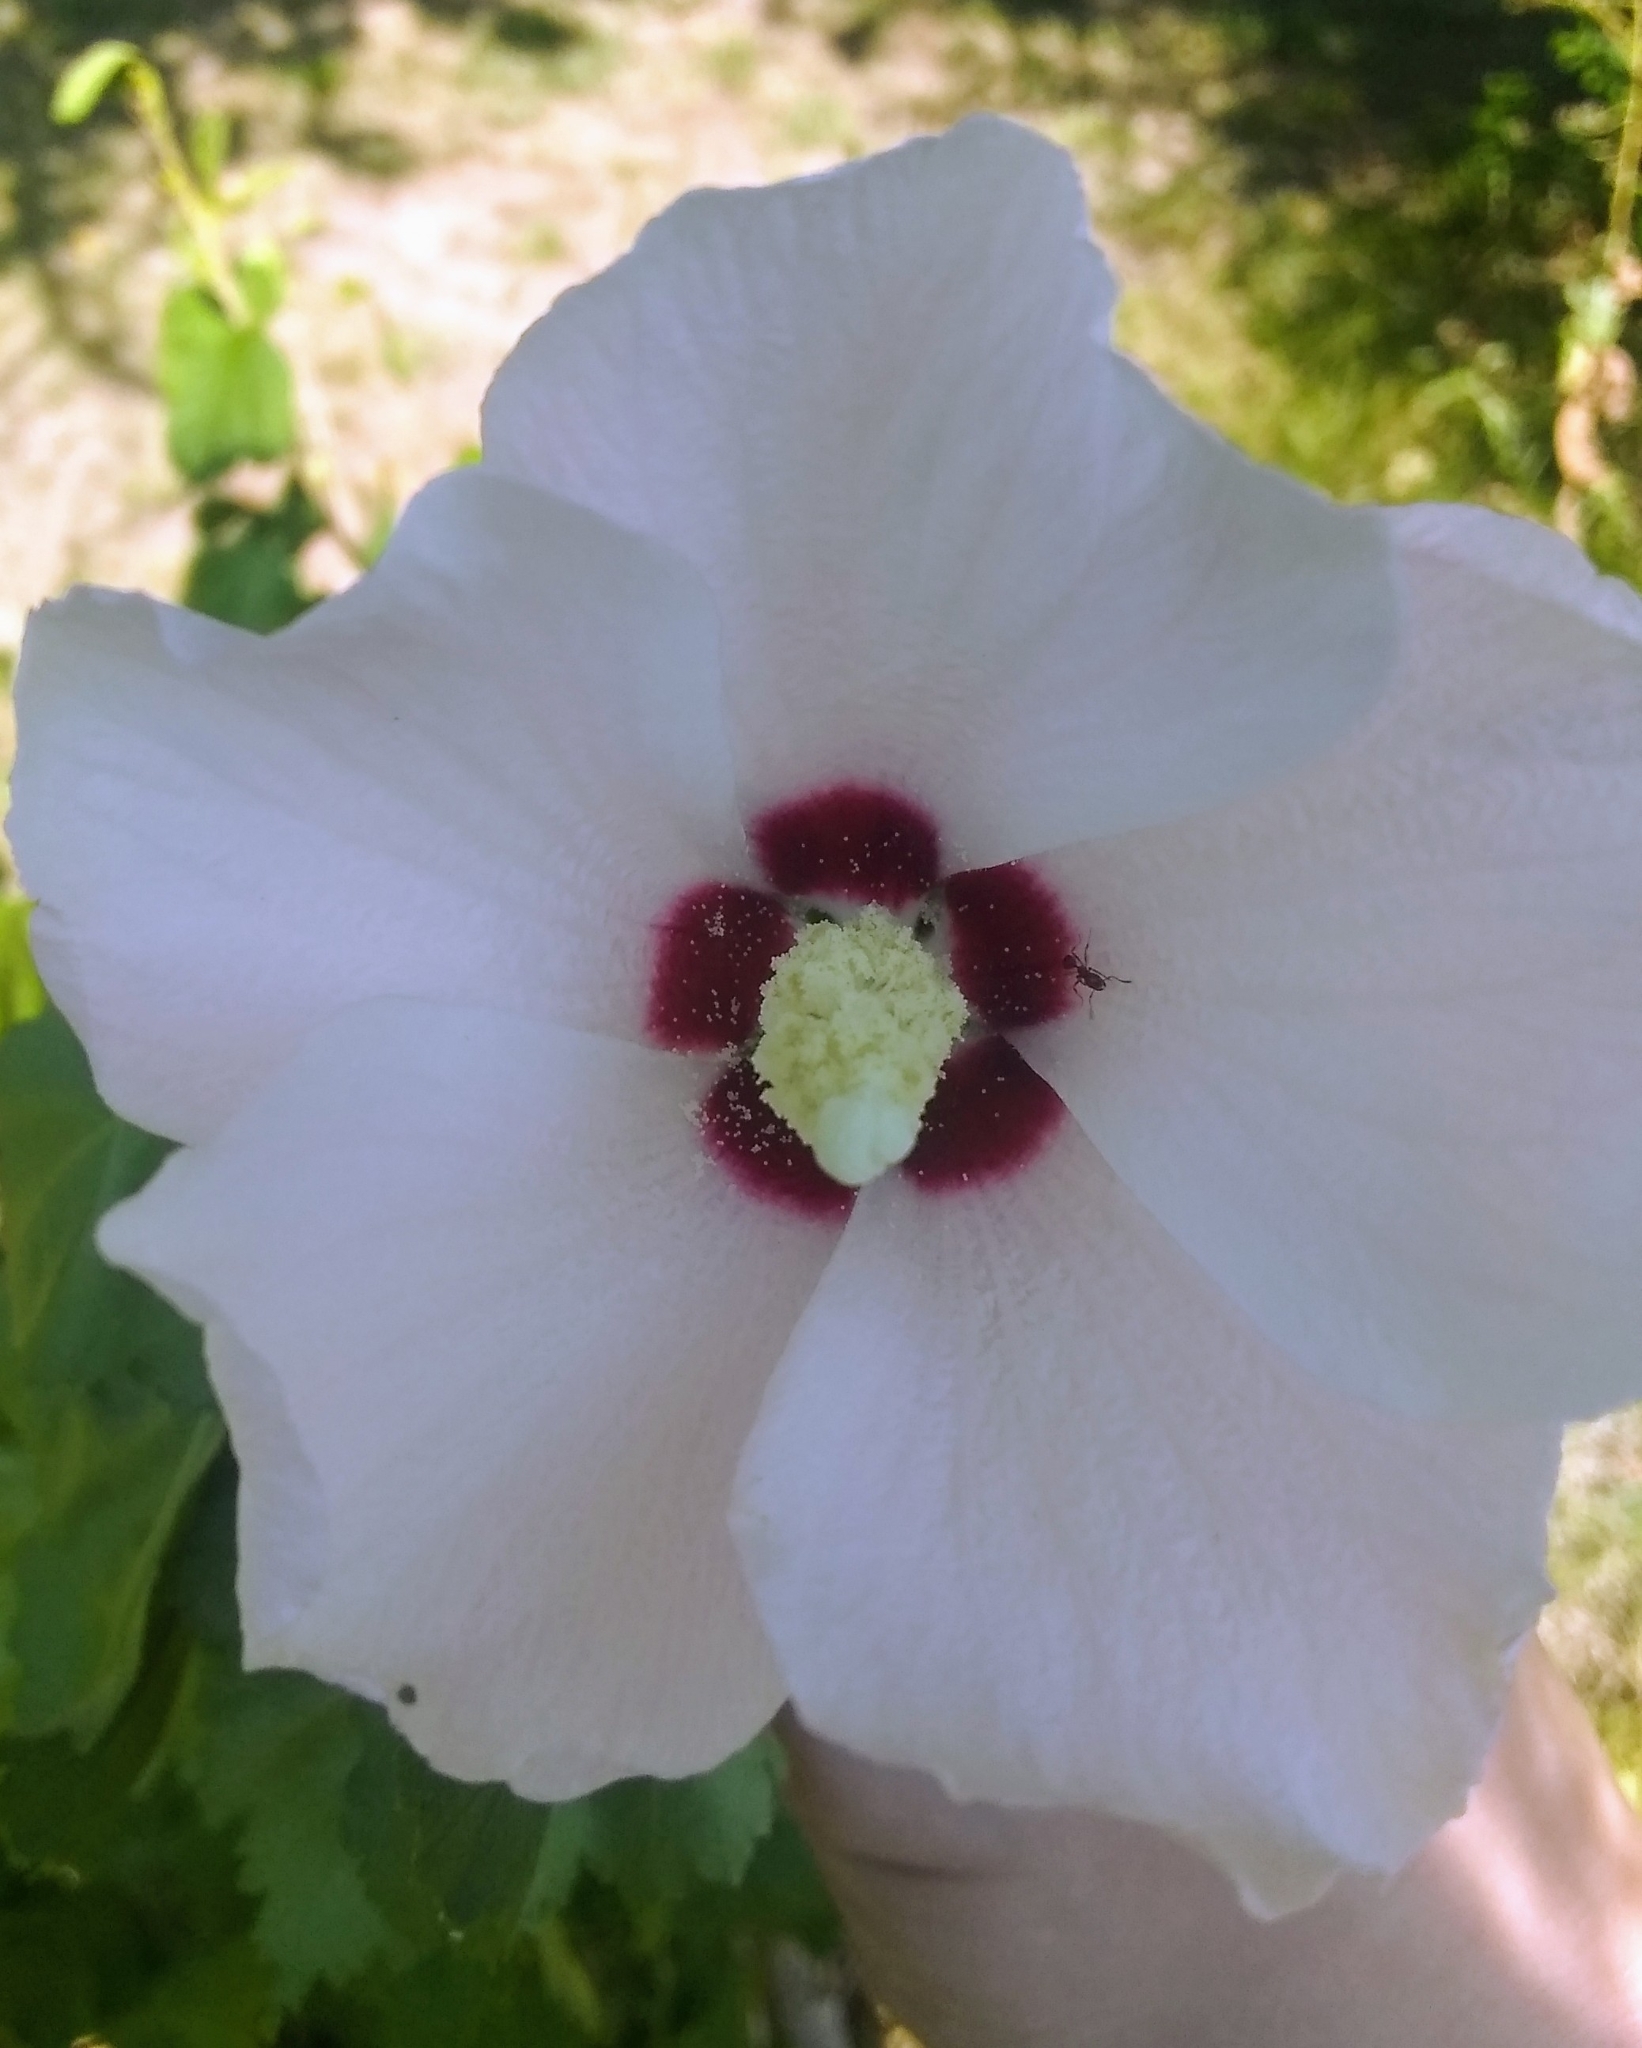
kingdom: Plantae
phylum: Tracheophyta
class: Magnoliopsida
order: Malvales
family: Malvaceae
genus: Hibiscus
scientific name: Hibiscus syriacus
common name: Syrian ketmia
